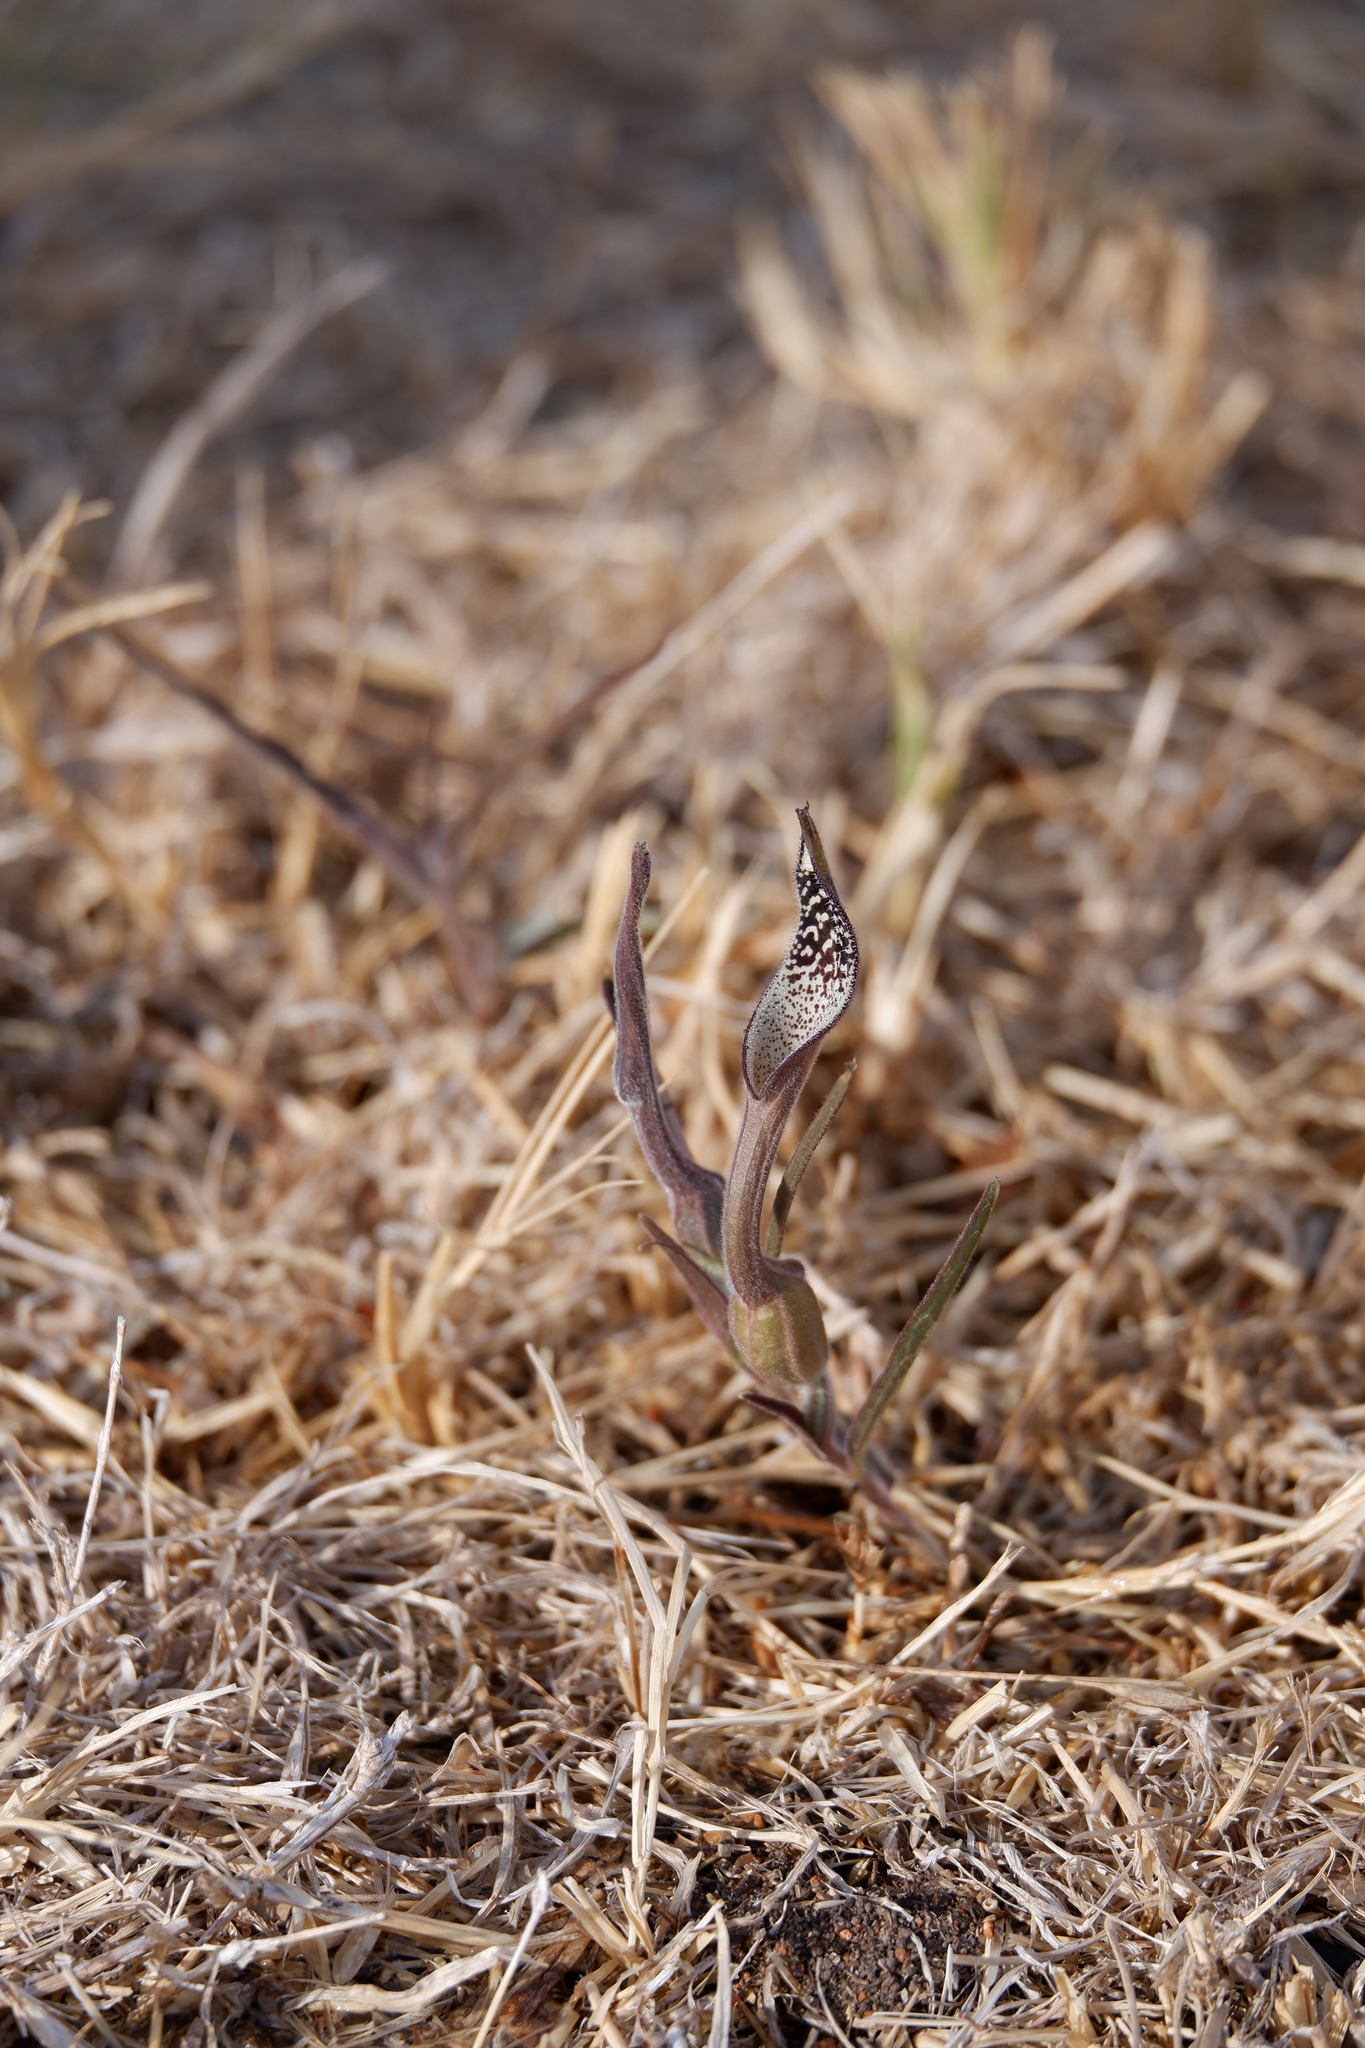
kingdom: Plantae
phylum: Tracheophyta
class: Magnoliopsida
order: Piperales
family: Aristolochiaceae
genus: Aristolochia
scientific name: Aristolochia erecta
